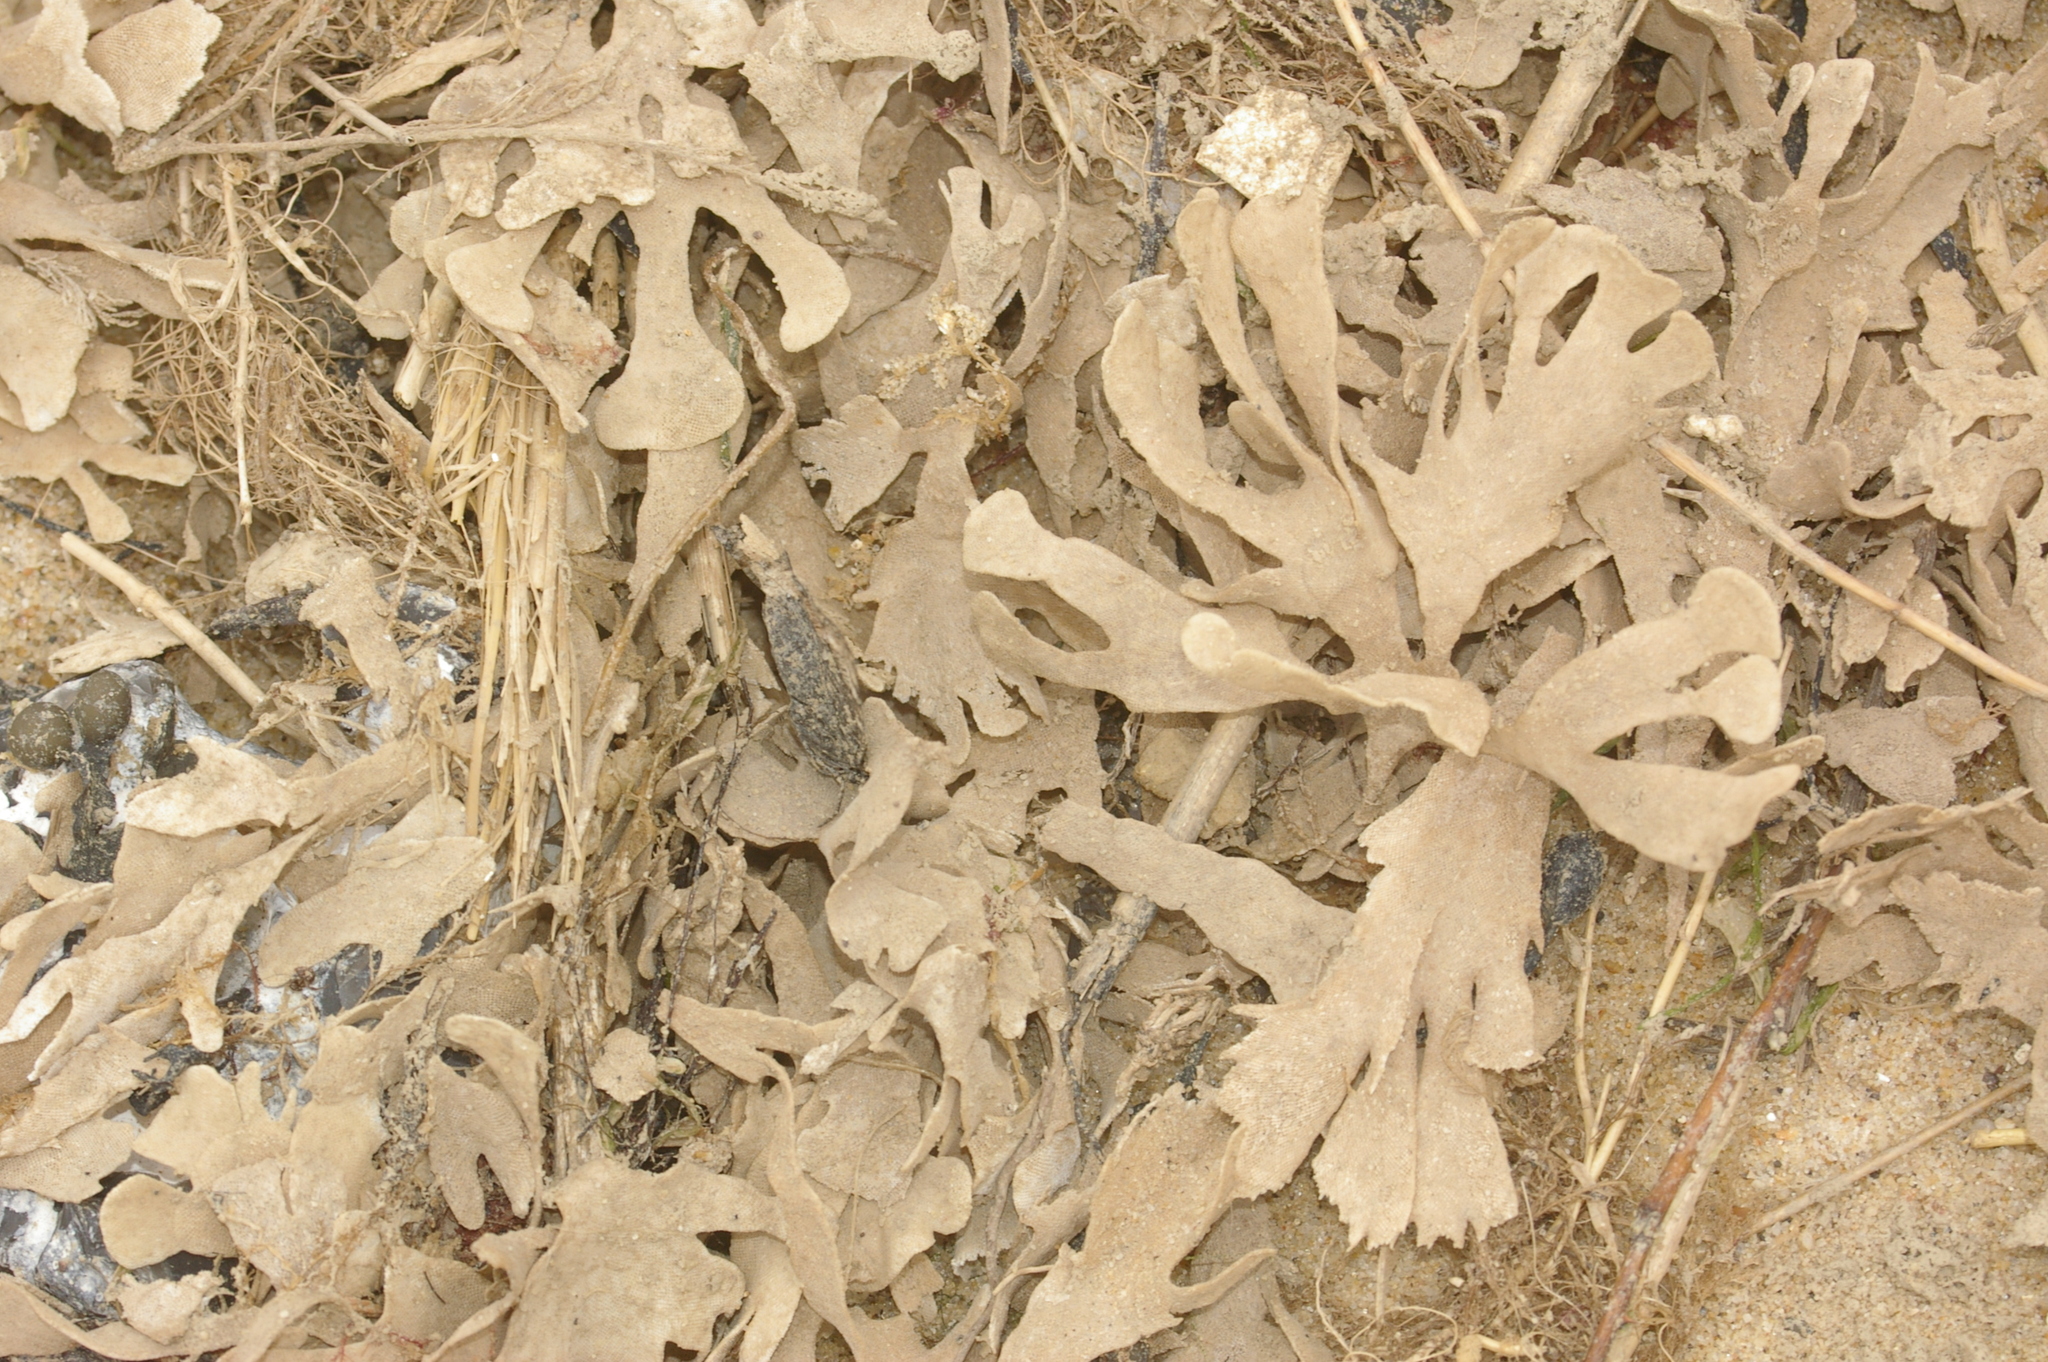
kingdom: Animalia
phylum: Bryozoa
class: Gymnolaemata
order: Cheilostomatida
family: Flustridae
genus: Flustra
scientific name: Flustra foliacea
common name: Hornwrack
